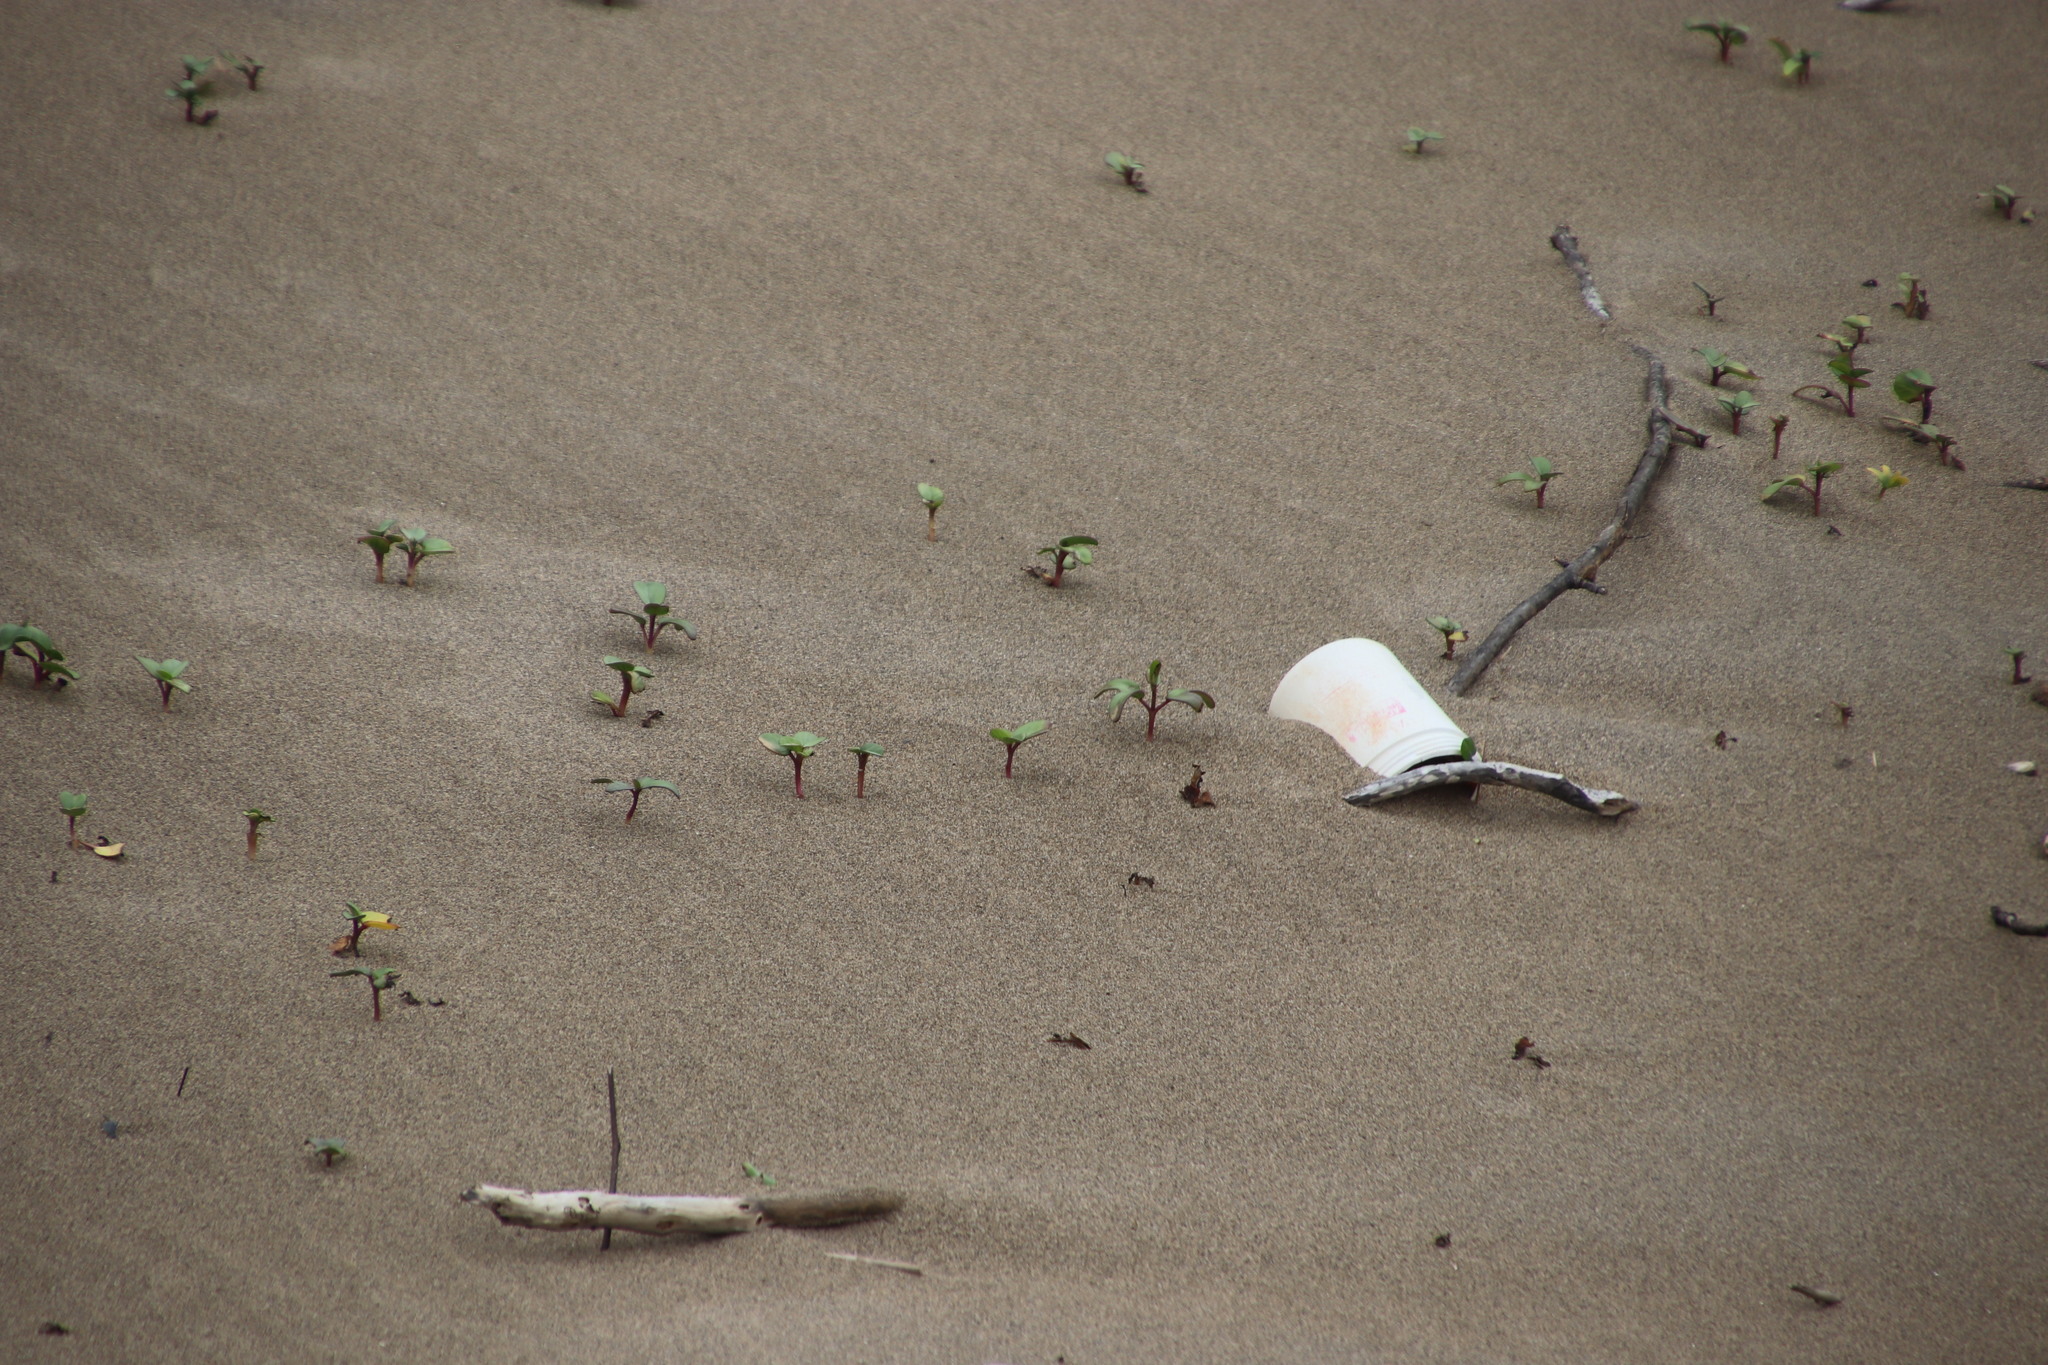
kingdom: Plantae
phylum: Tracheophyta
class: Magnoliopsida
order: Solanales
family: Convolvulaceae
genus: Ipomoea
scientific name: Ipomoea pes-caprae
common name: Beach morning glory
